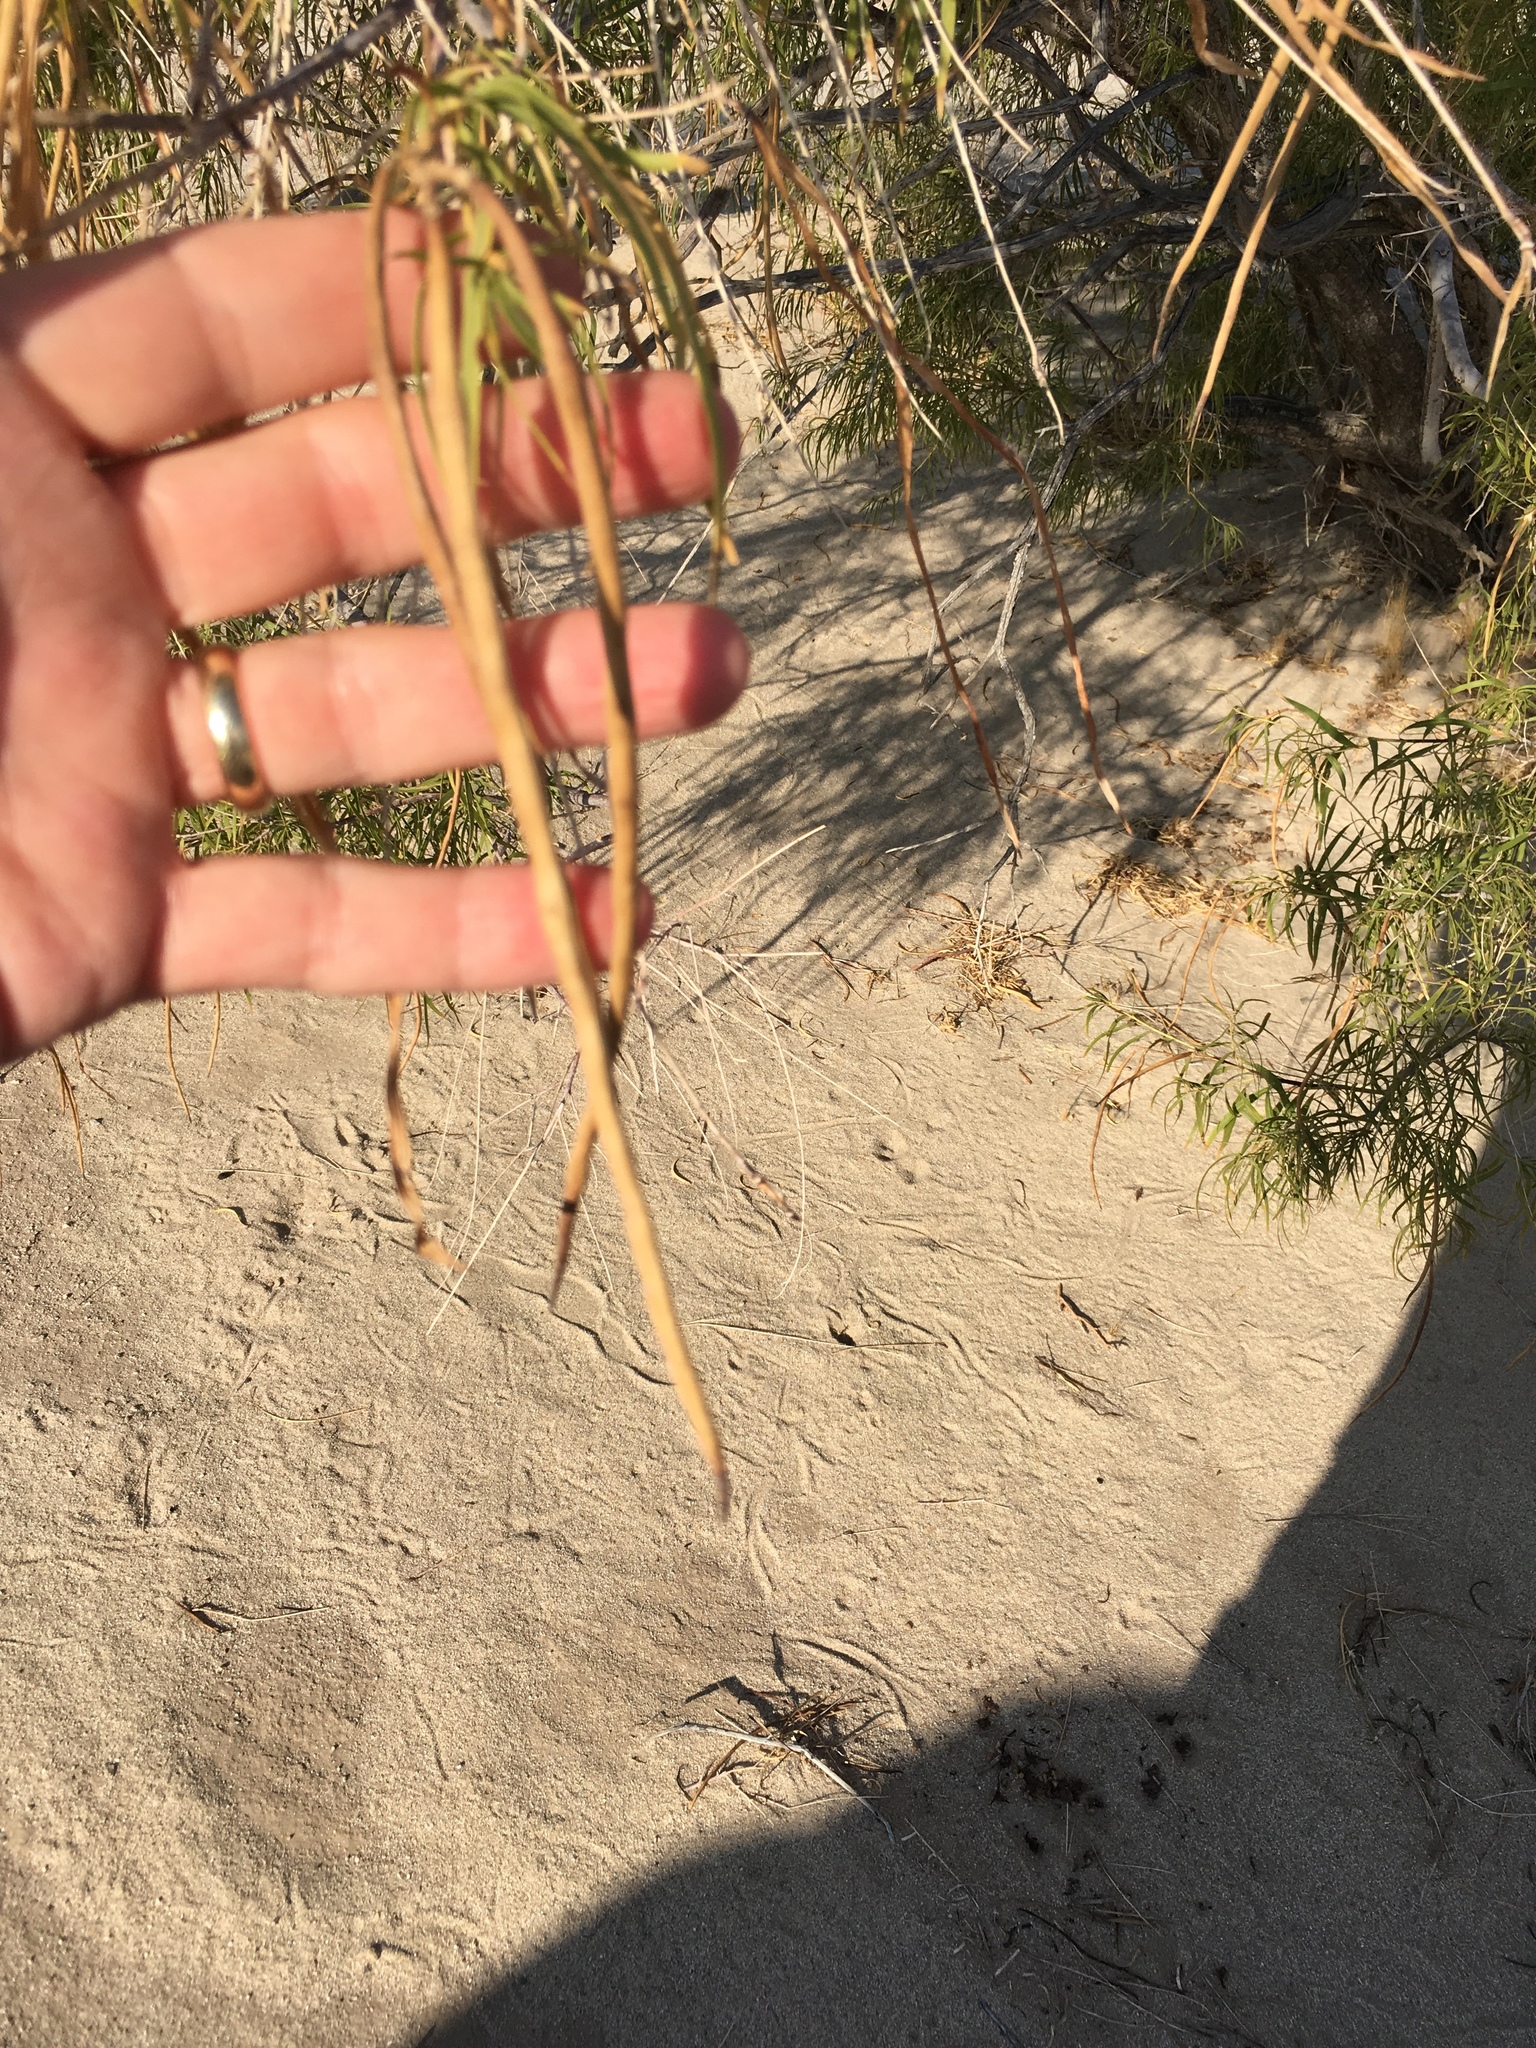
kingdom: Plantae
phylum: Tracheophyta
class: Magnoliopsida
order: Lamiales
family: Bignoniaceae
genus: Chilopsis
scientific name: Chilopsis linearis
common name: Desert-willow
